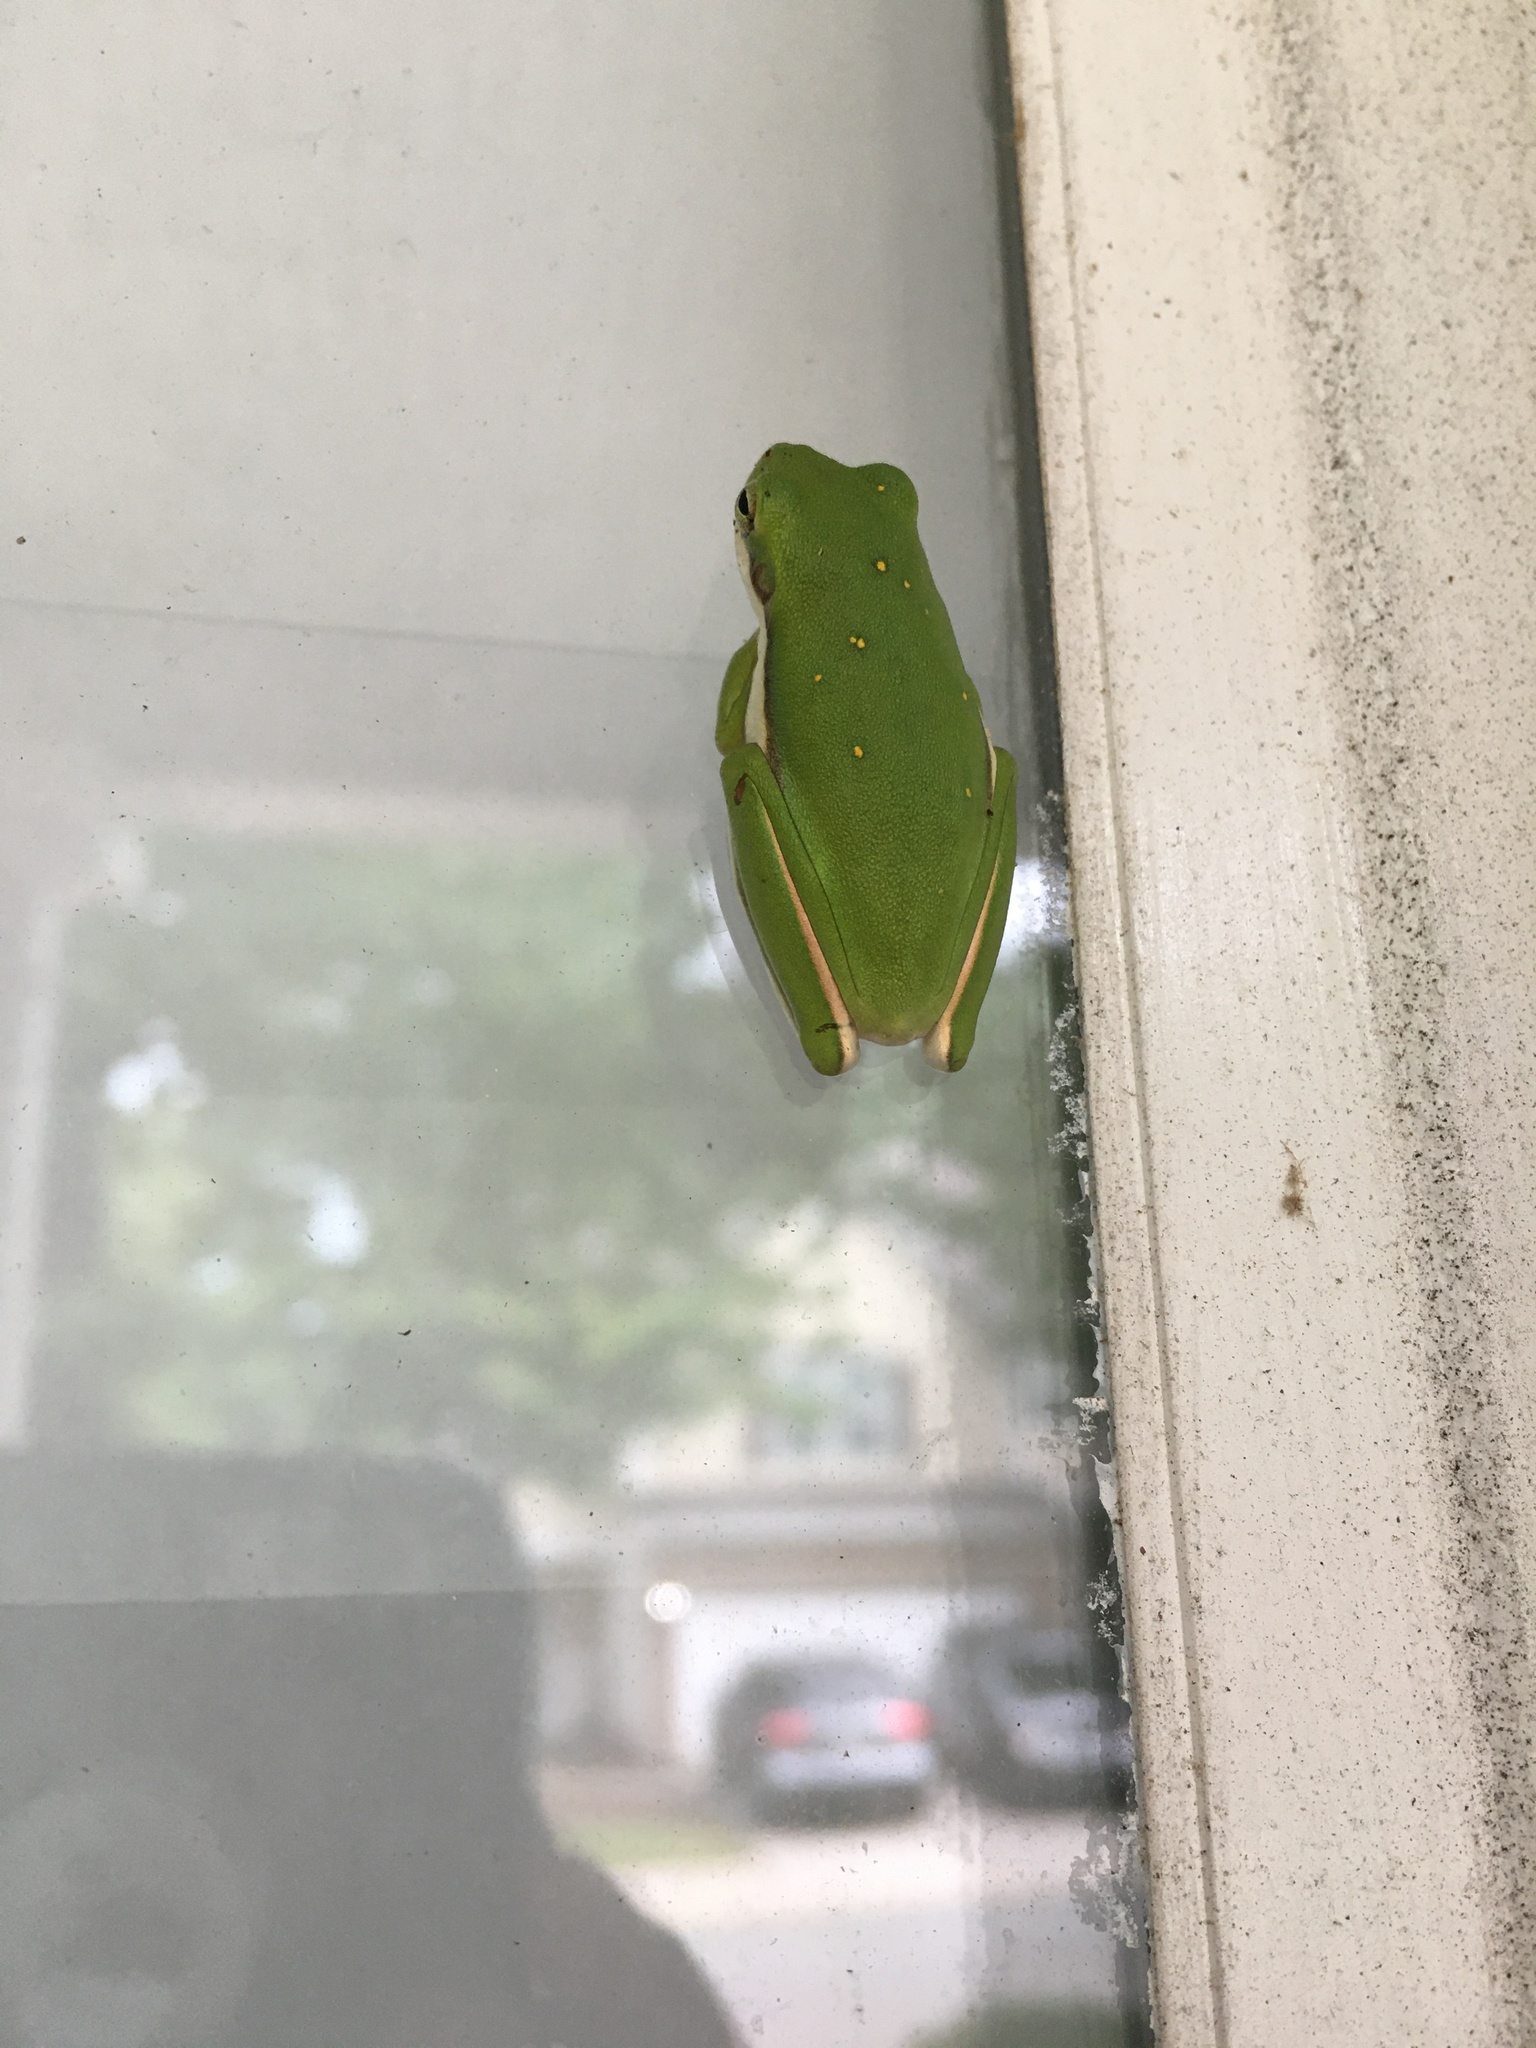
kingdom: Animalia
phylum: Chordata
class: Amphibia
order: Anura
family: Hylidae
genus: Dryophytes
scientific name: Dryophytes cinereus
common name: Green treefrog
